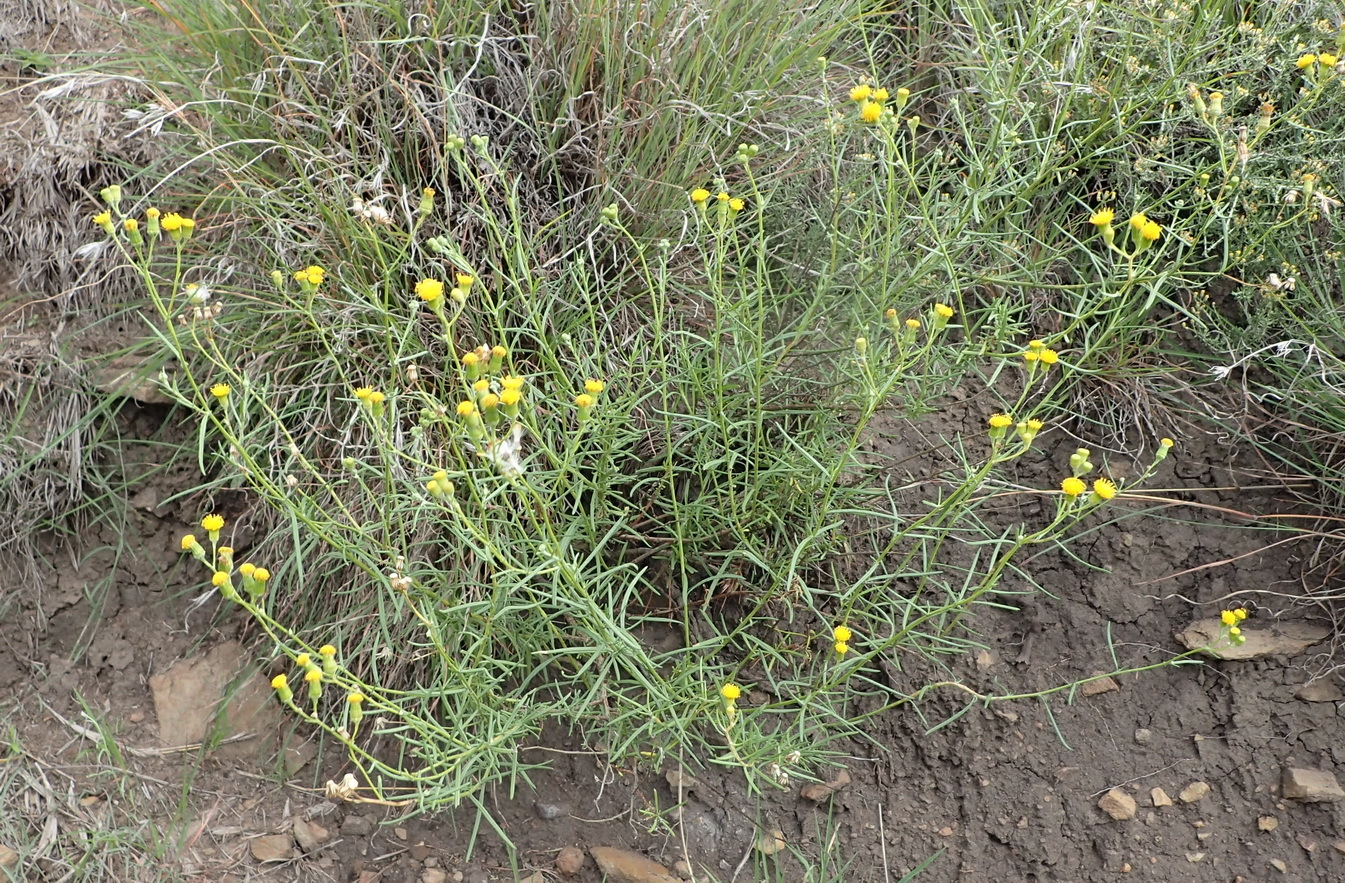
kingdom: Plantae
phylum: Tracheophyta
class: Magnoliopsida
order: Asterales
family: Asteraceae
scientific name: Asteraceae
